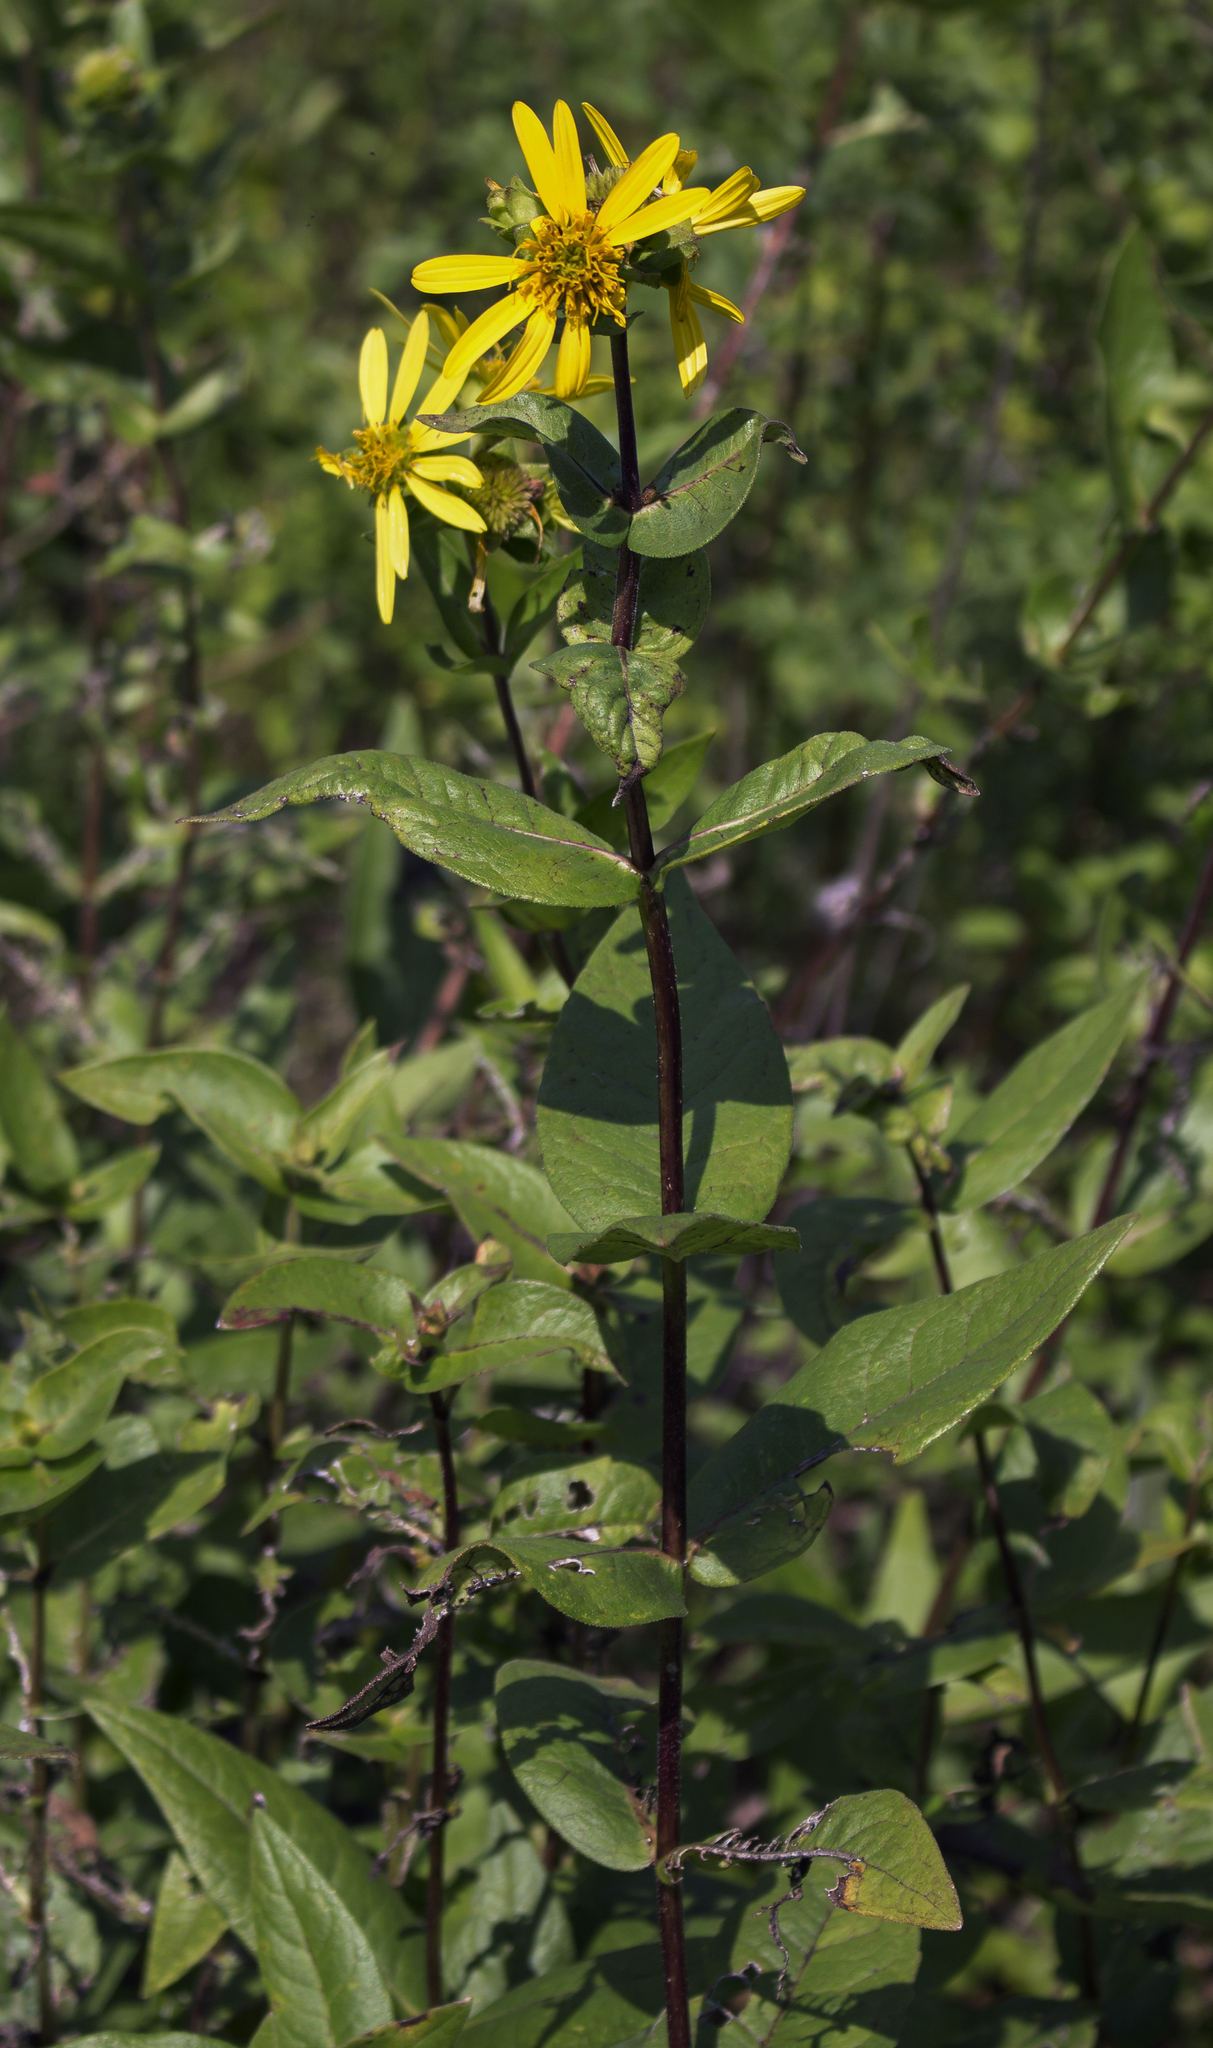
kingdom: Plantae
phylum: Tracheophyta
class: Magnoliopsida
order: Asterales
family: Asteraceae
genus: Silphium
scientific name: Silphium integrifolium
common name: Whole-leaf rosinweed
